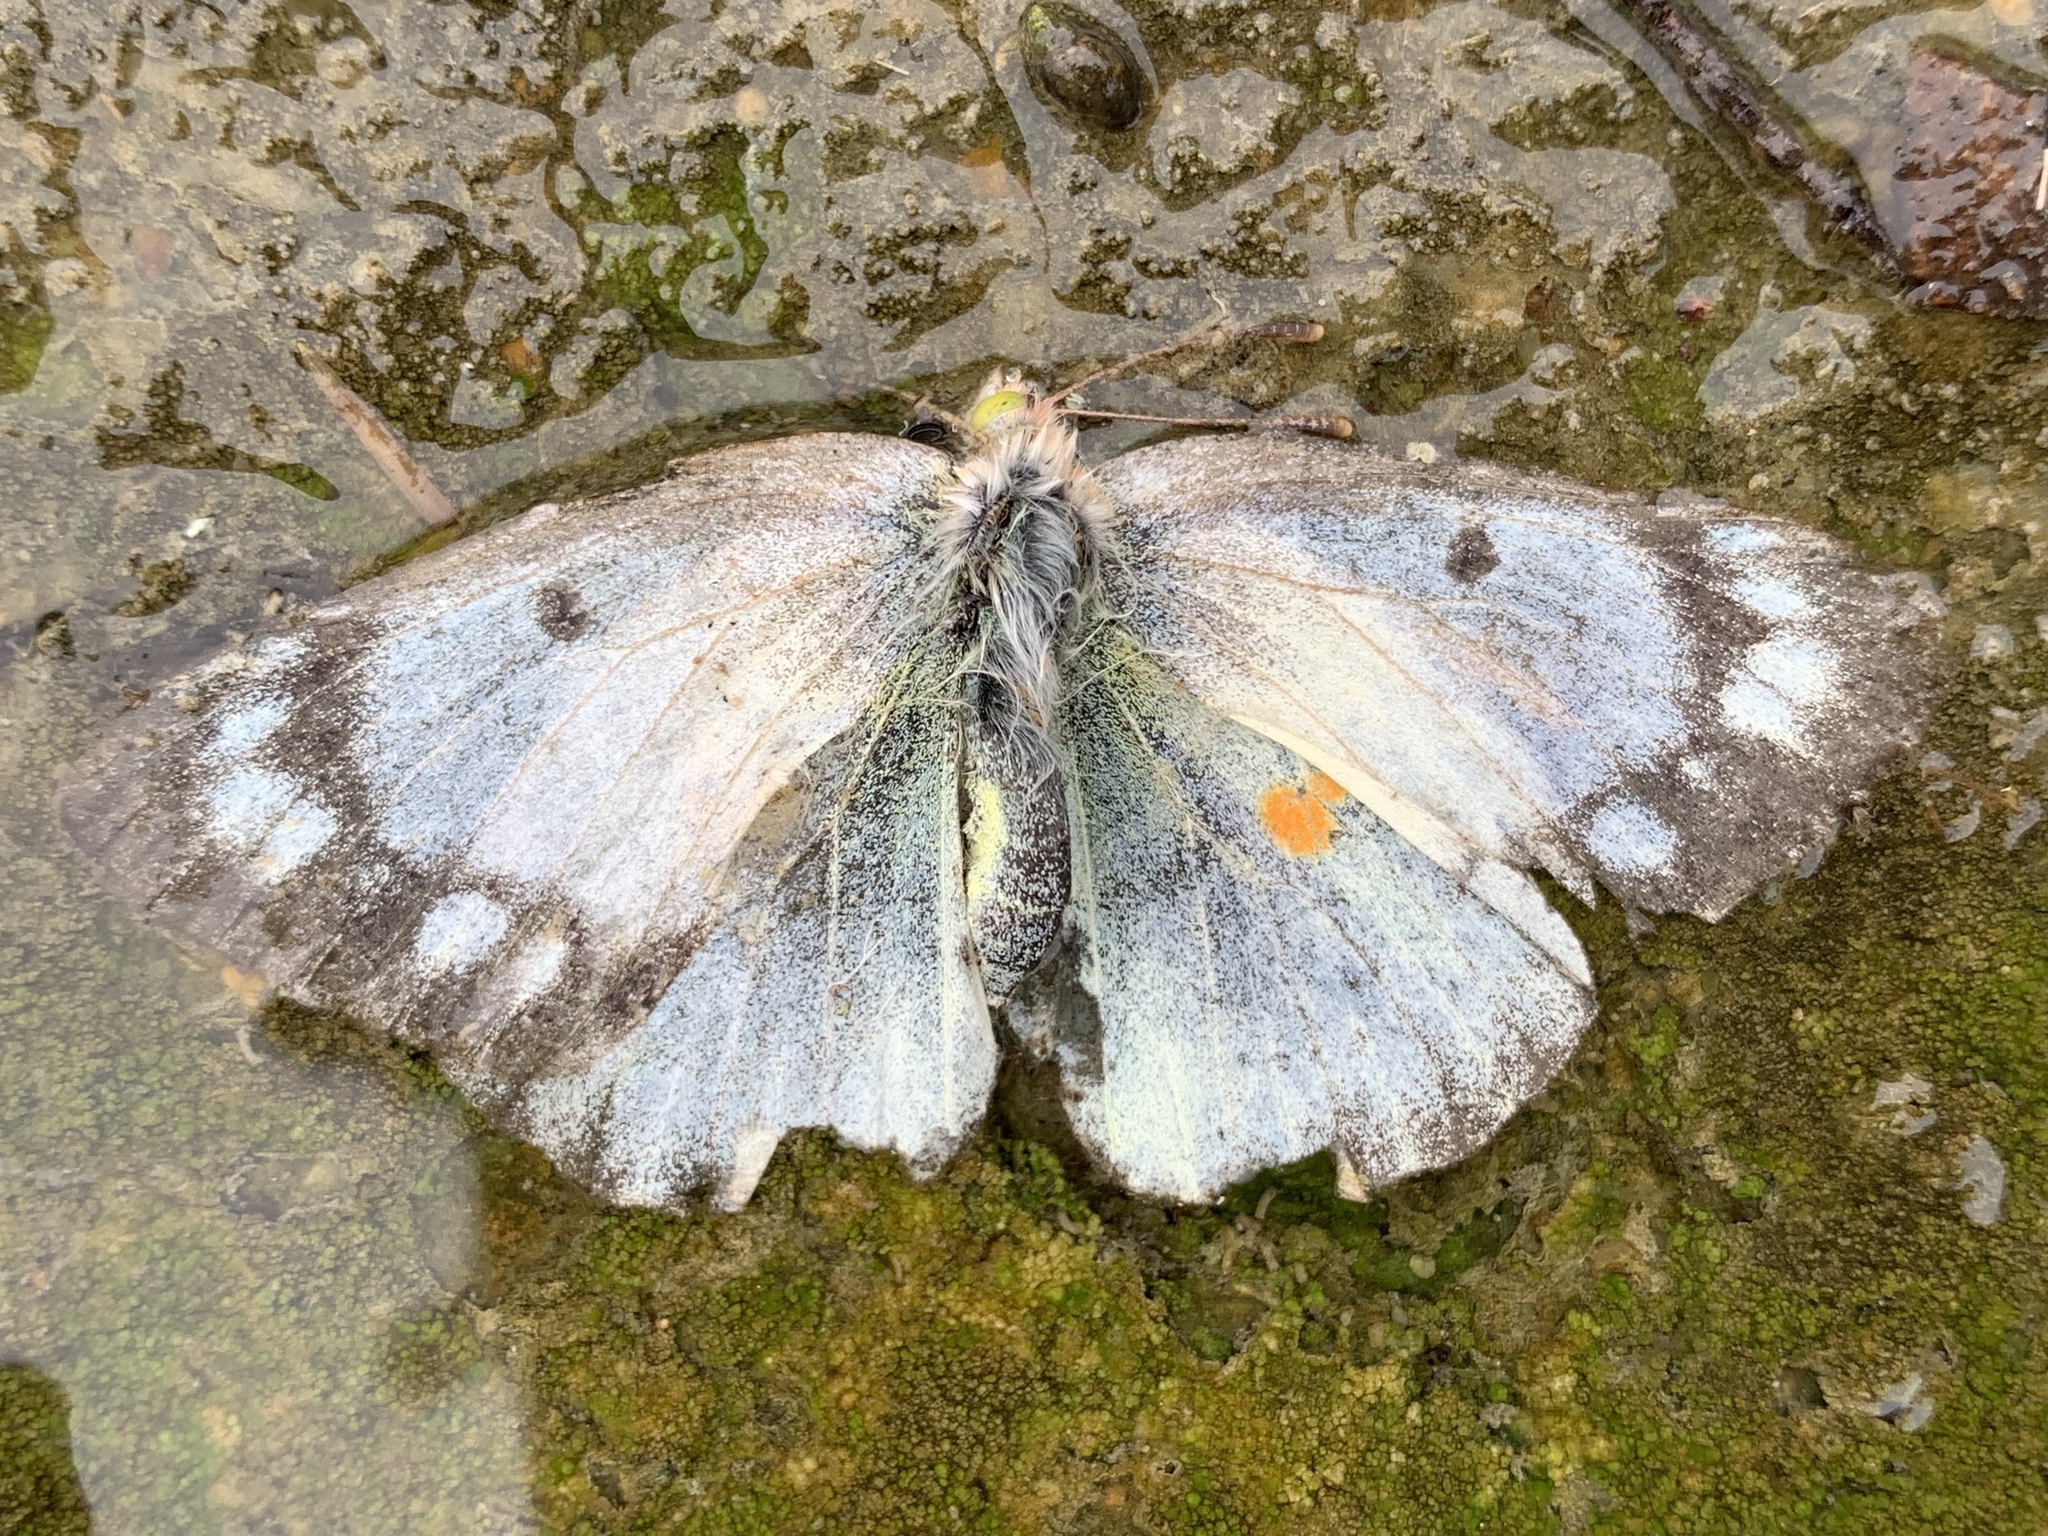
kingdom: Animalia
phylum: Arthropoda
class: Insecta
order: Lepidoptera
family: Pieridae
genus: Colias
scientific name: Colias eurytheme
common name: Alfalfa butterfly
